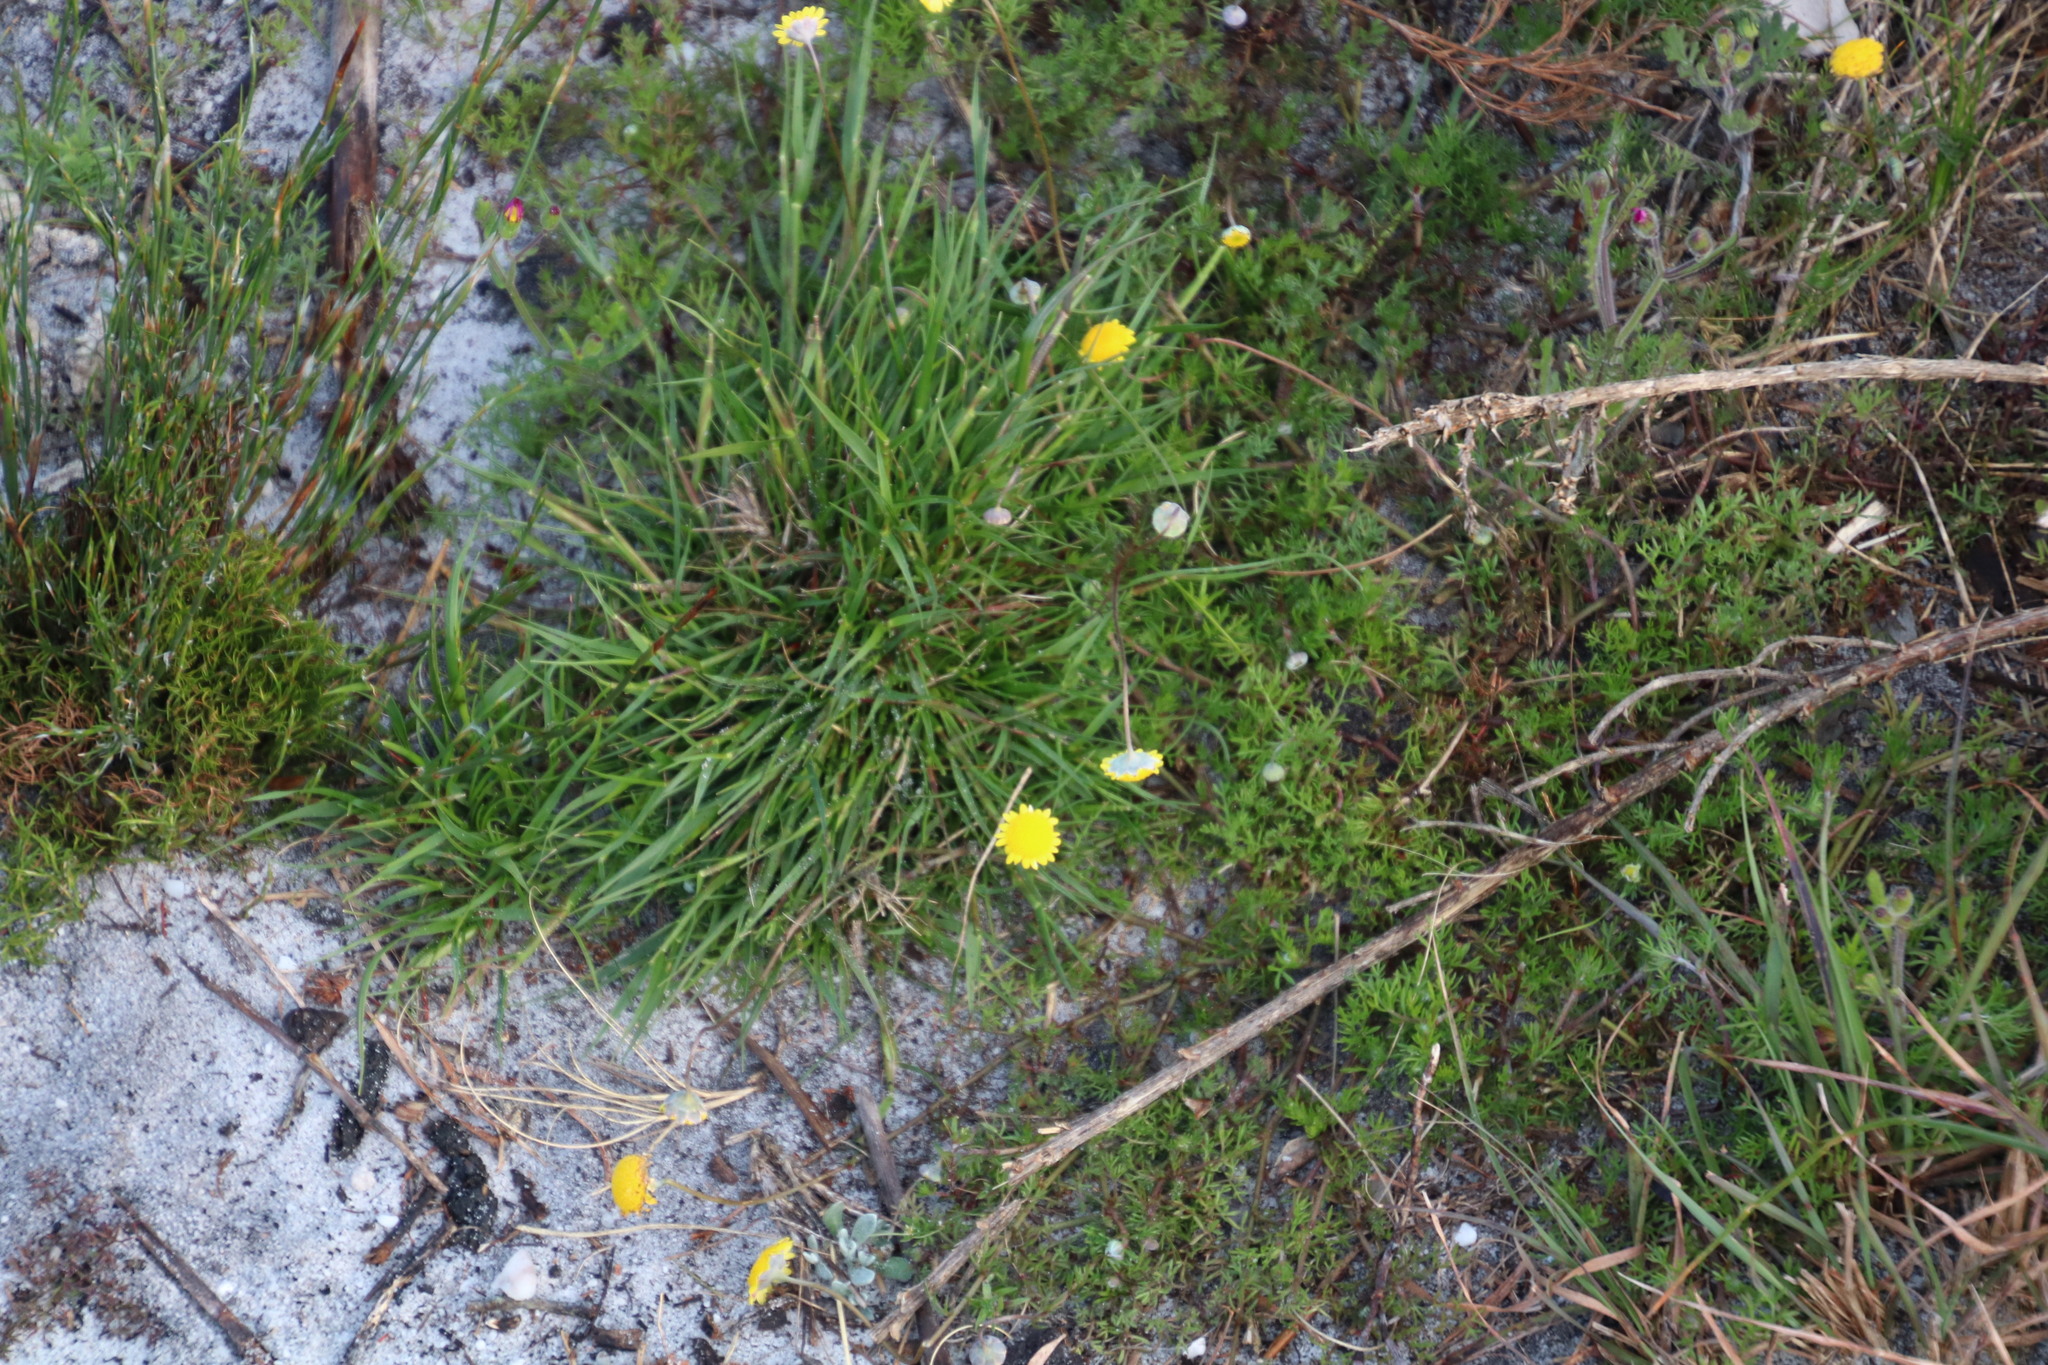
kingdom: Plantae
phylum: Tracheophyta
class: Magnoliopsida
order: Asterales
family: Asteraceae
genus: Cotula
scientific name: Cotula pruinosa
